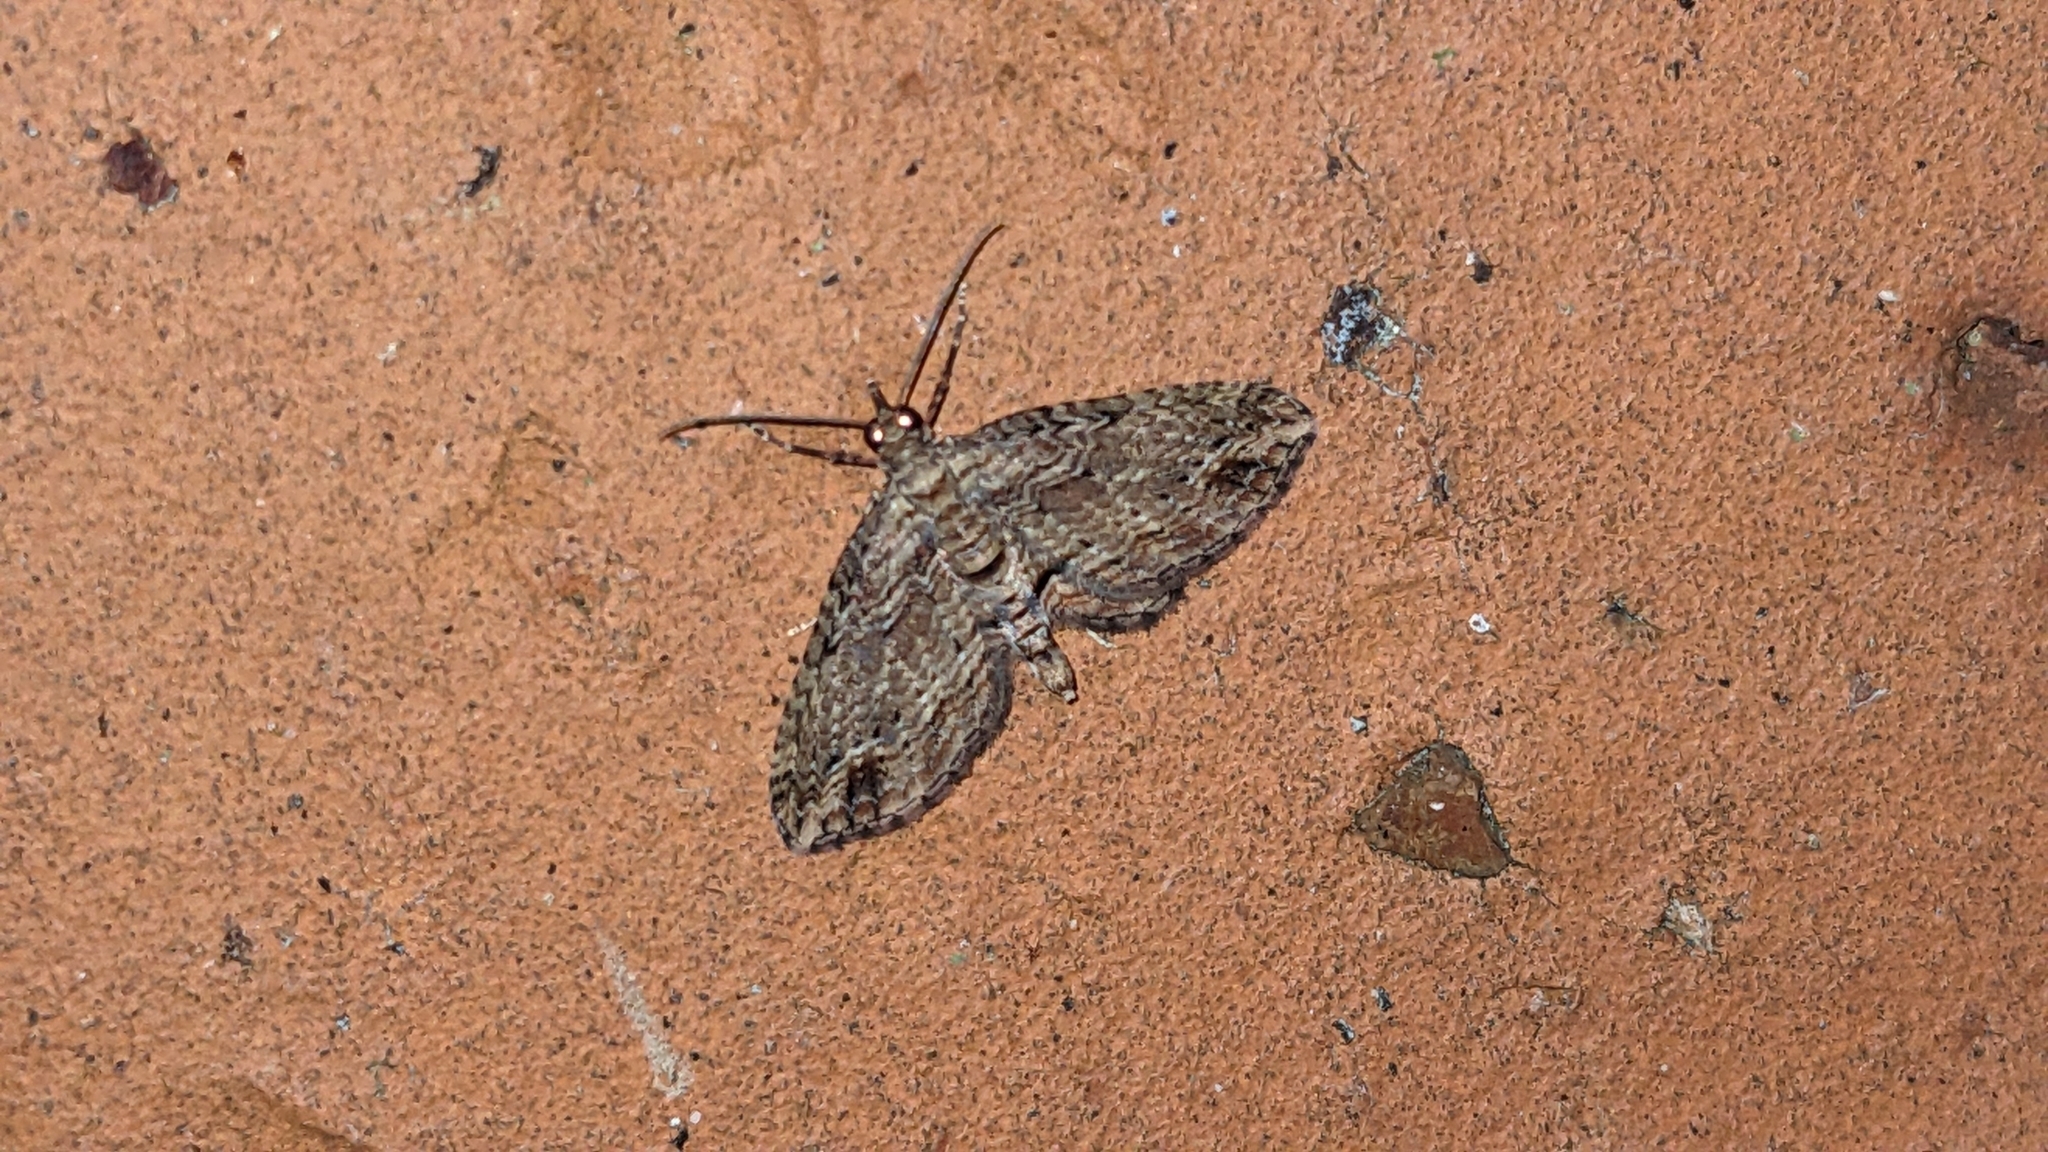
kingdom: Animalia
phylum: Arthropoda
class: Insecta
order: Lepidoptera
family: Geometridae
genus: Chloroclystis
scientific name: Chloroclystis filata
